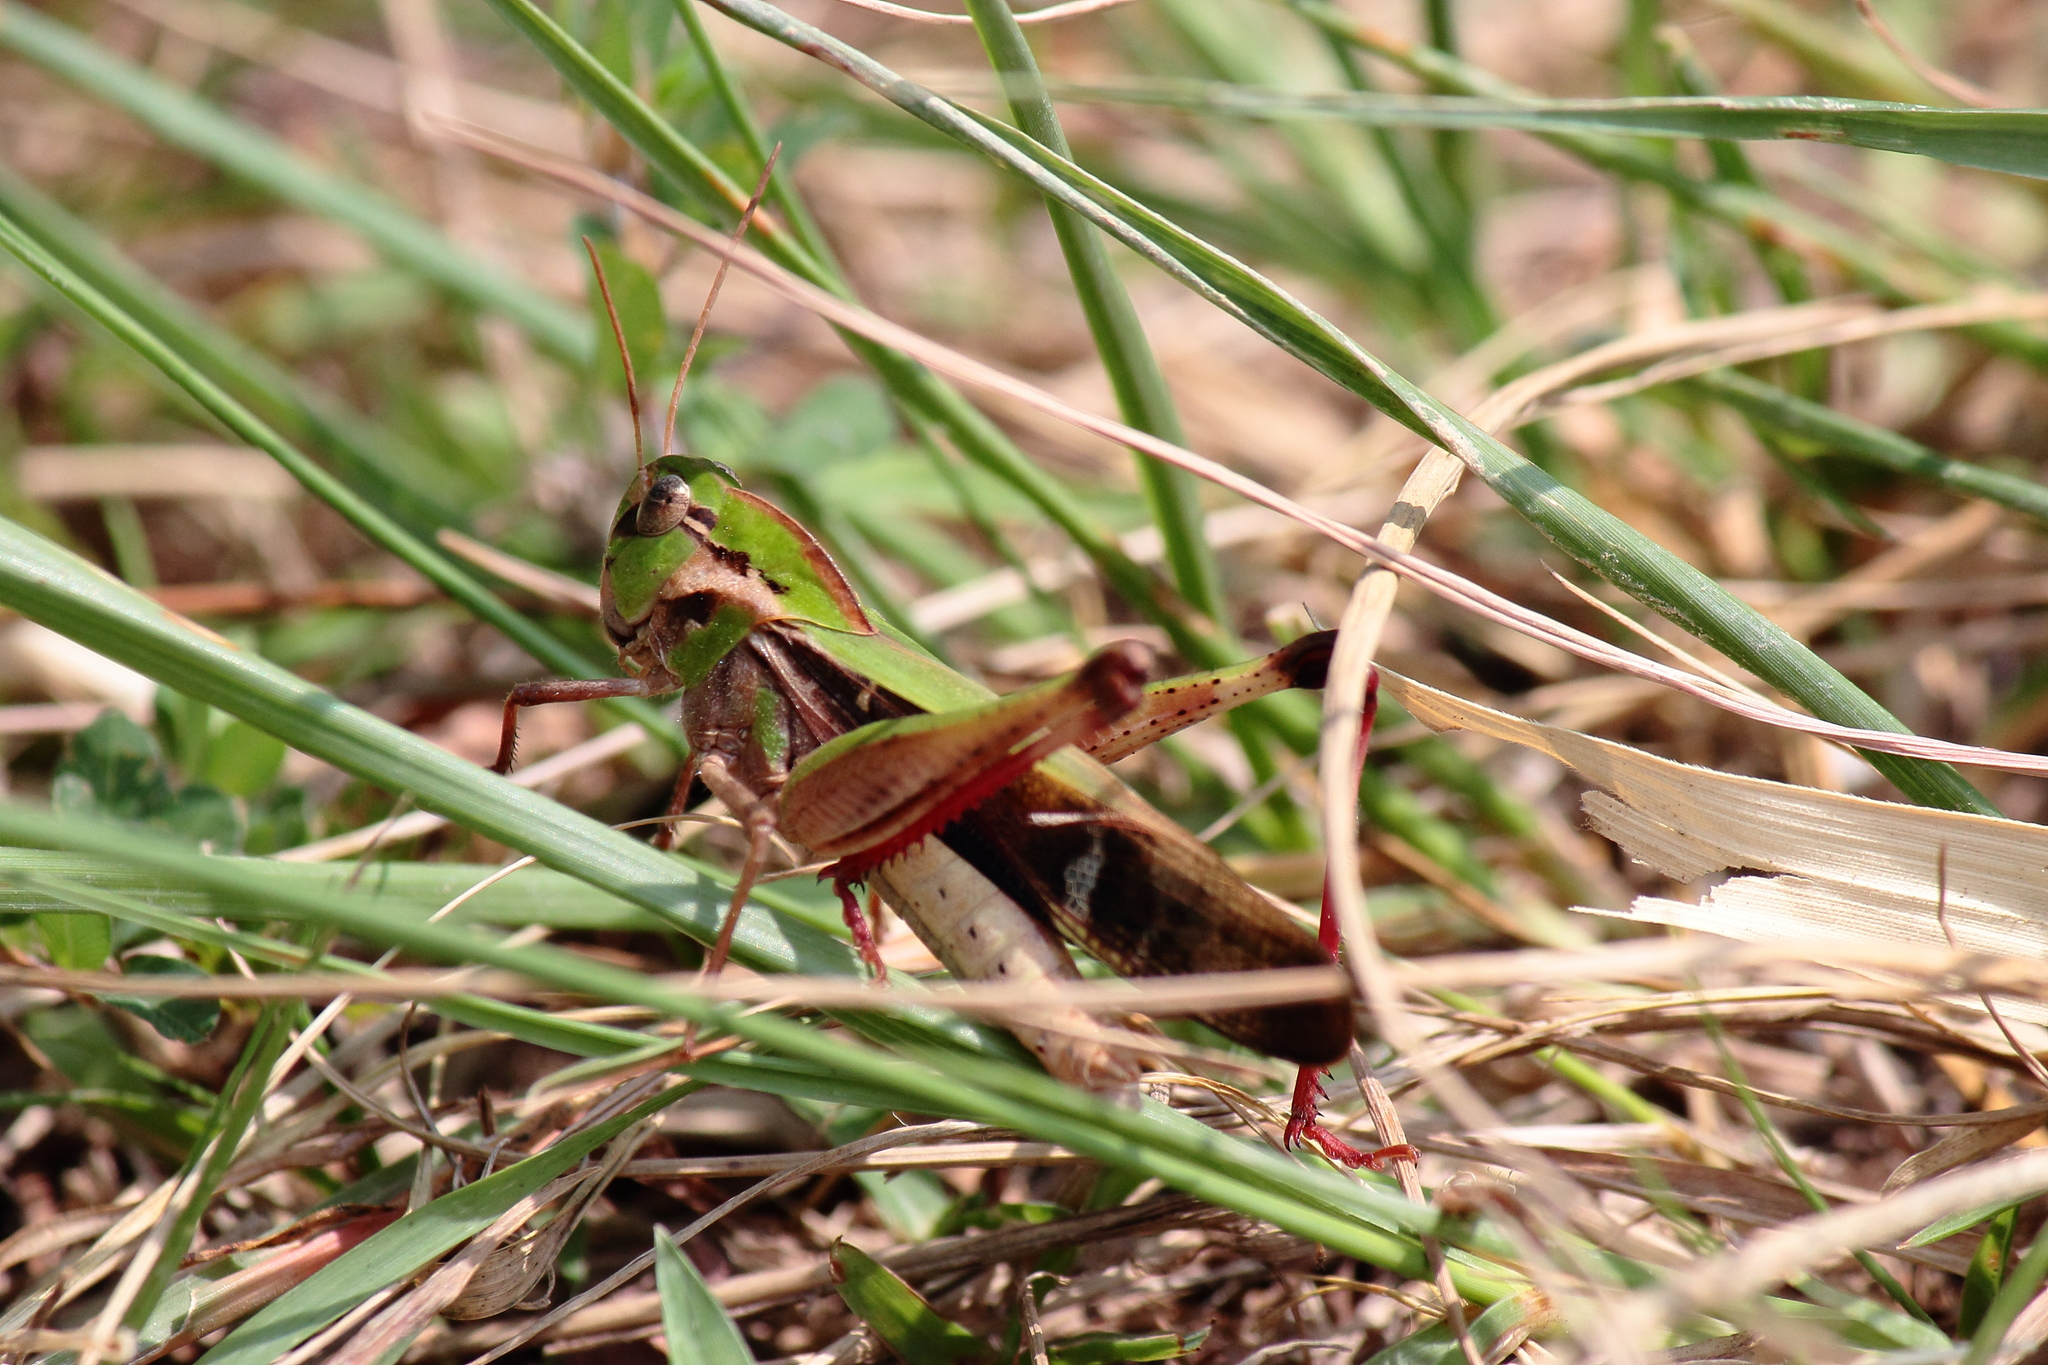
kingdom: Animalia
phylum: Arthropoda
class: Insecta
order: Orthoptera
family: Acrididae
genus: Gastrimargus
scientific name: Gastrimargus marmoratus
